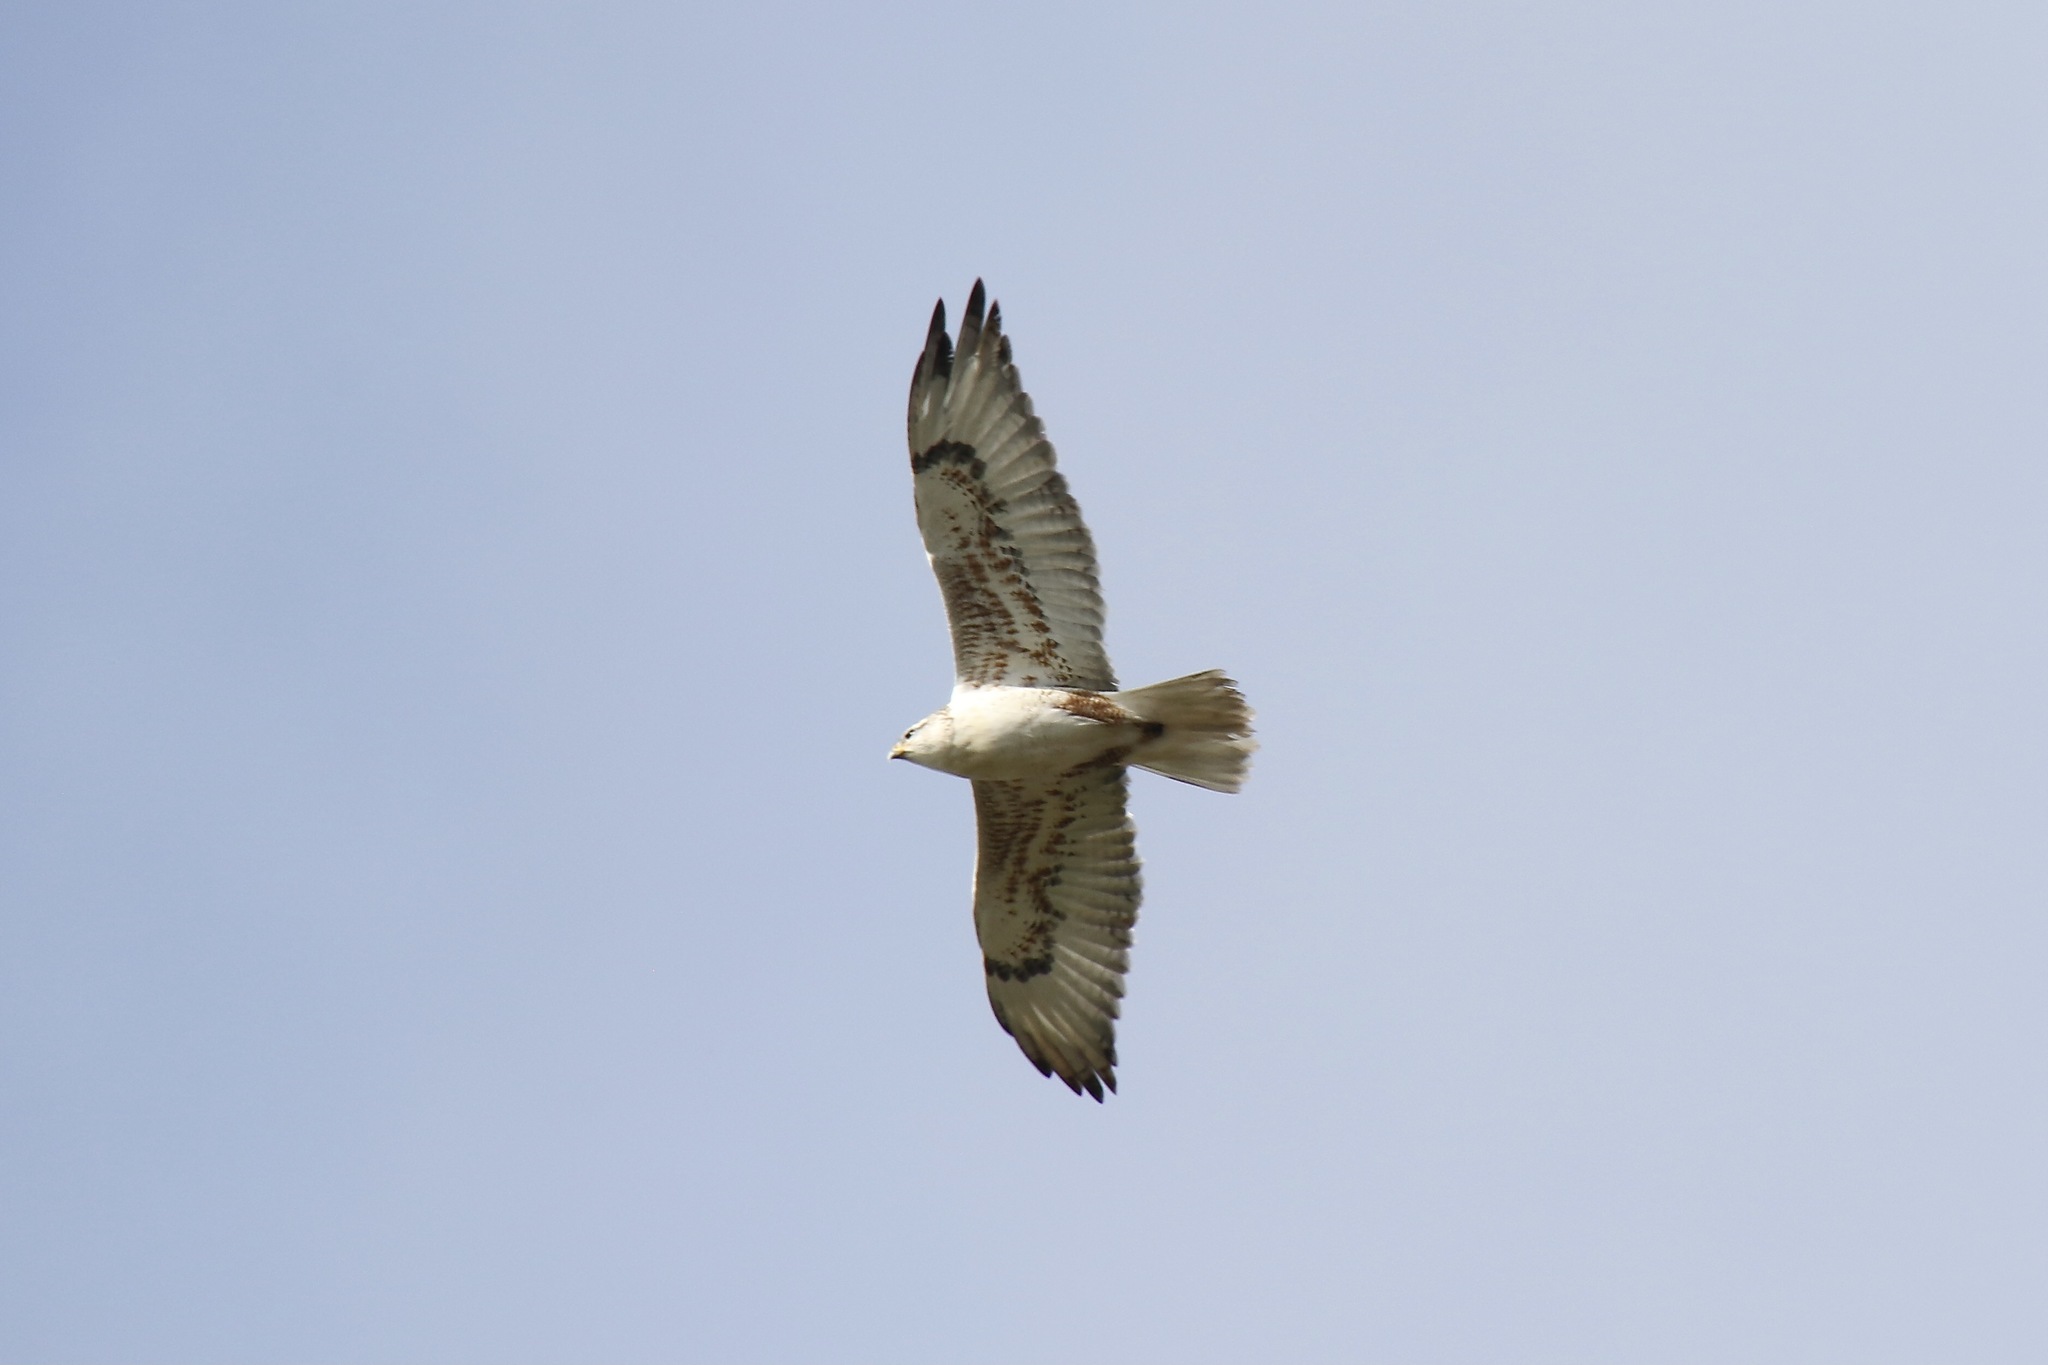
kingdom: Animalia
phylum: Chordata
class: Aves
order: Accipitriformes
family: Accipitridae
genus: Buteo
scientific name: Buteo regalis
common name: Ferruginous hawk
